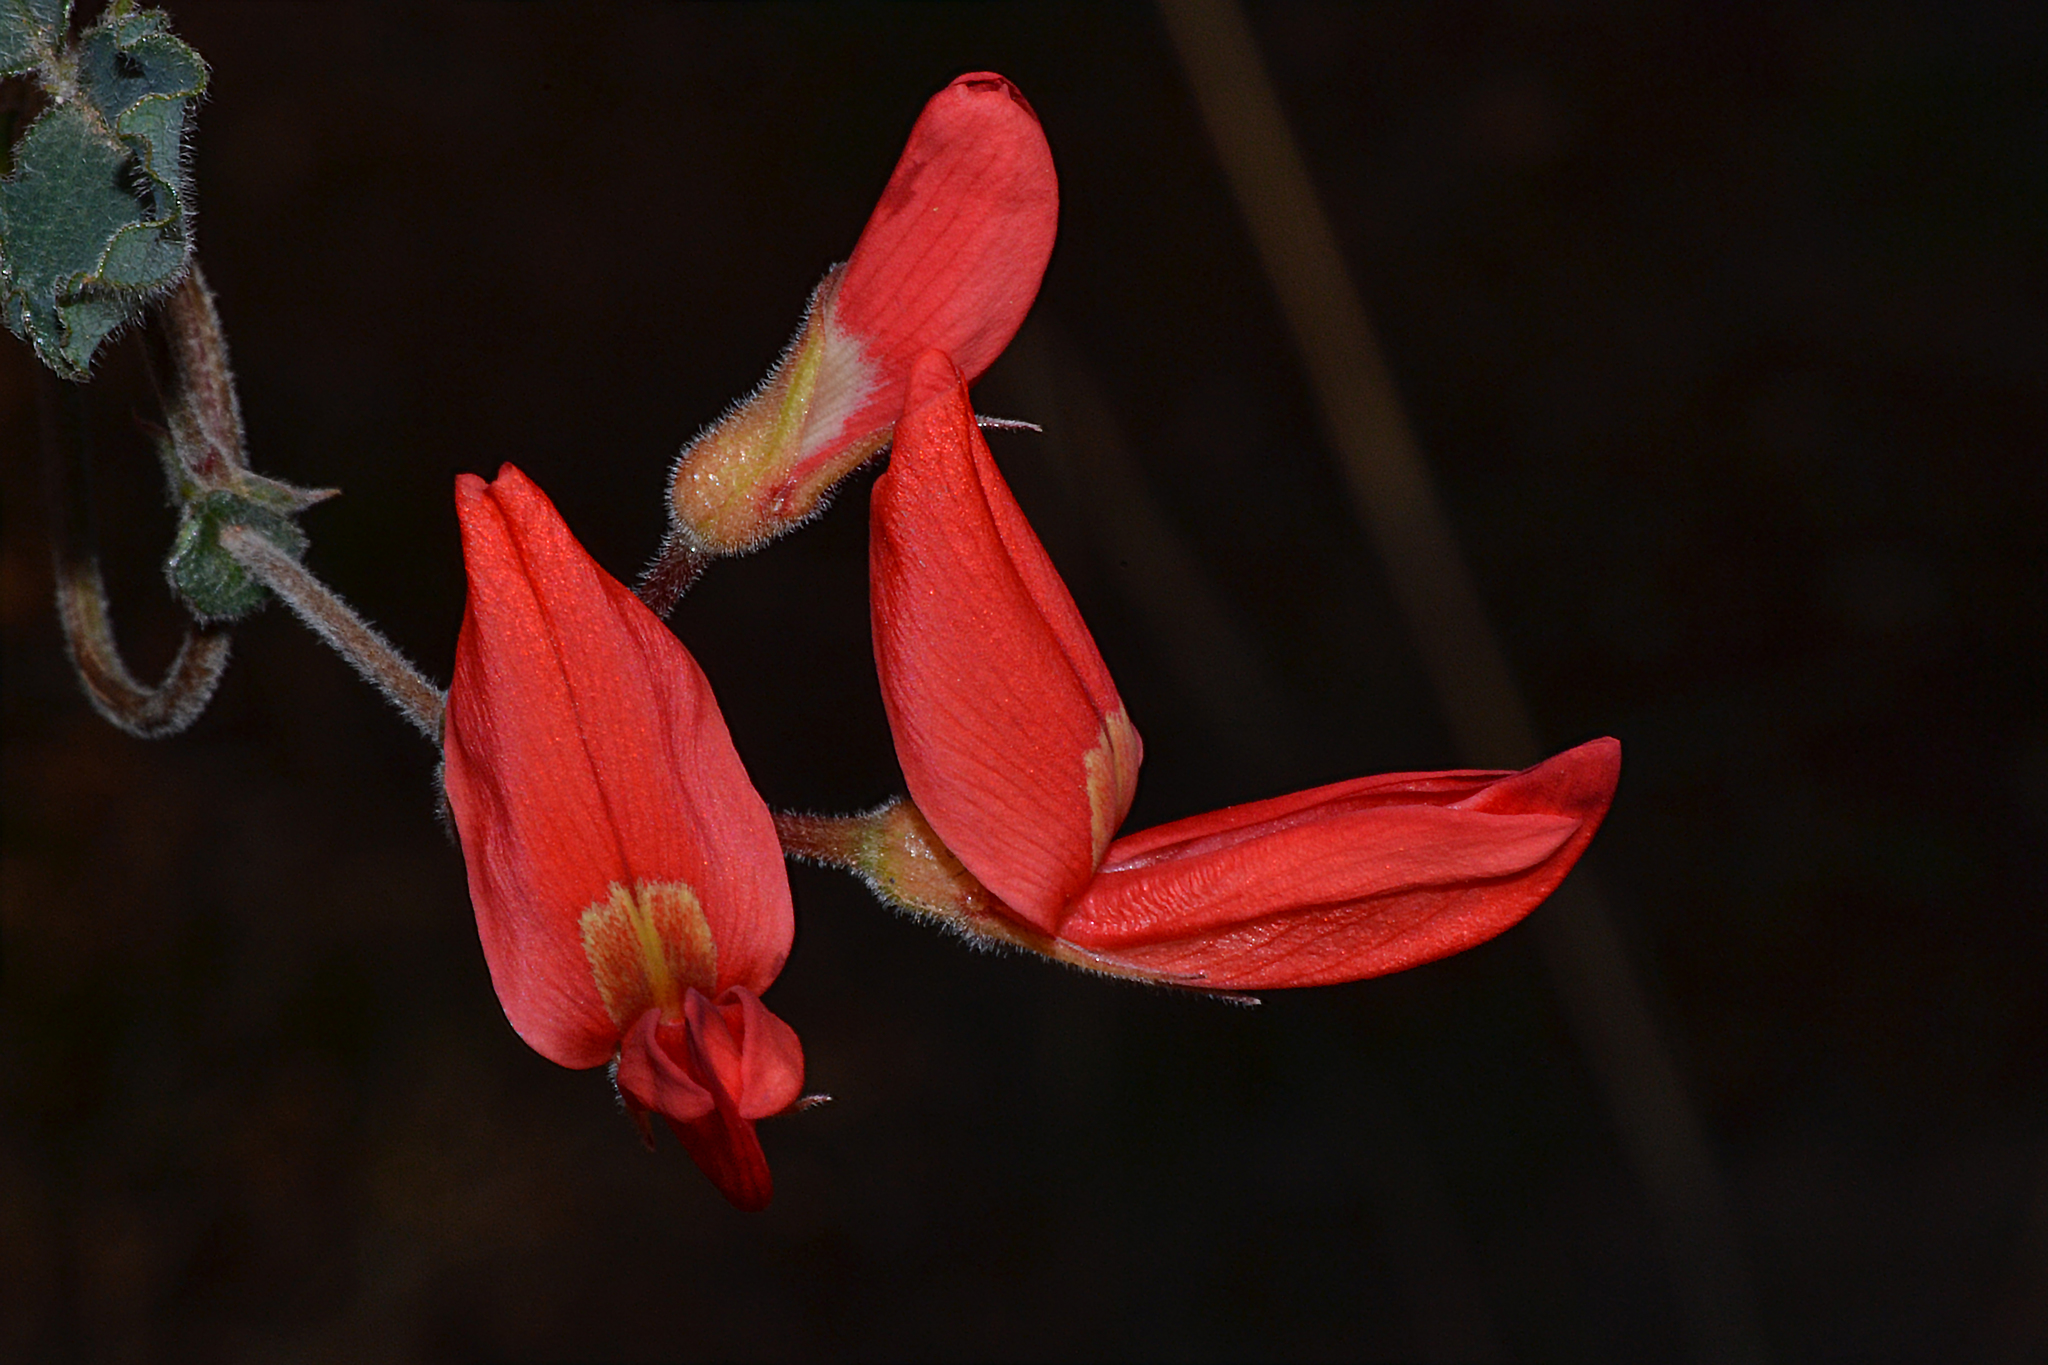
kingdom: Plantae
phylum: Tracheophyta
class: Magnoliopsida
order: Fabales
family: Fabaceae
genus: Kennedia
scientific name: Kennedia prostrata
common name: Running-postman
